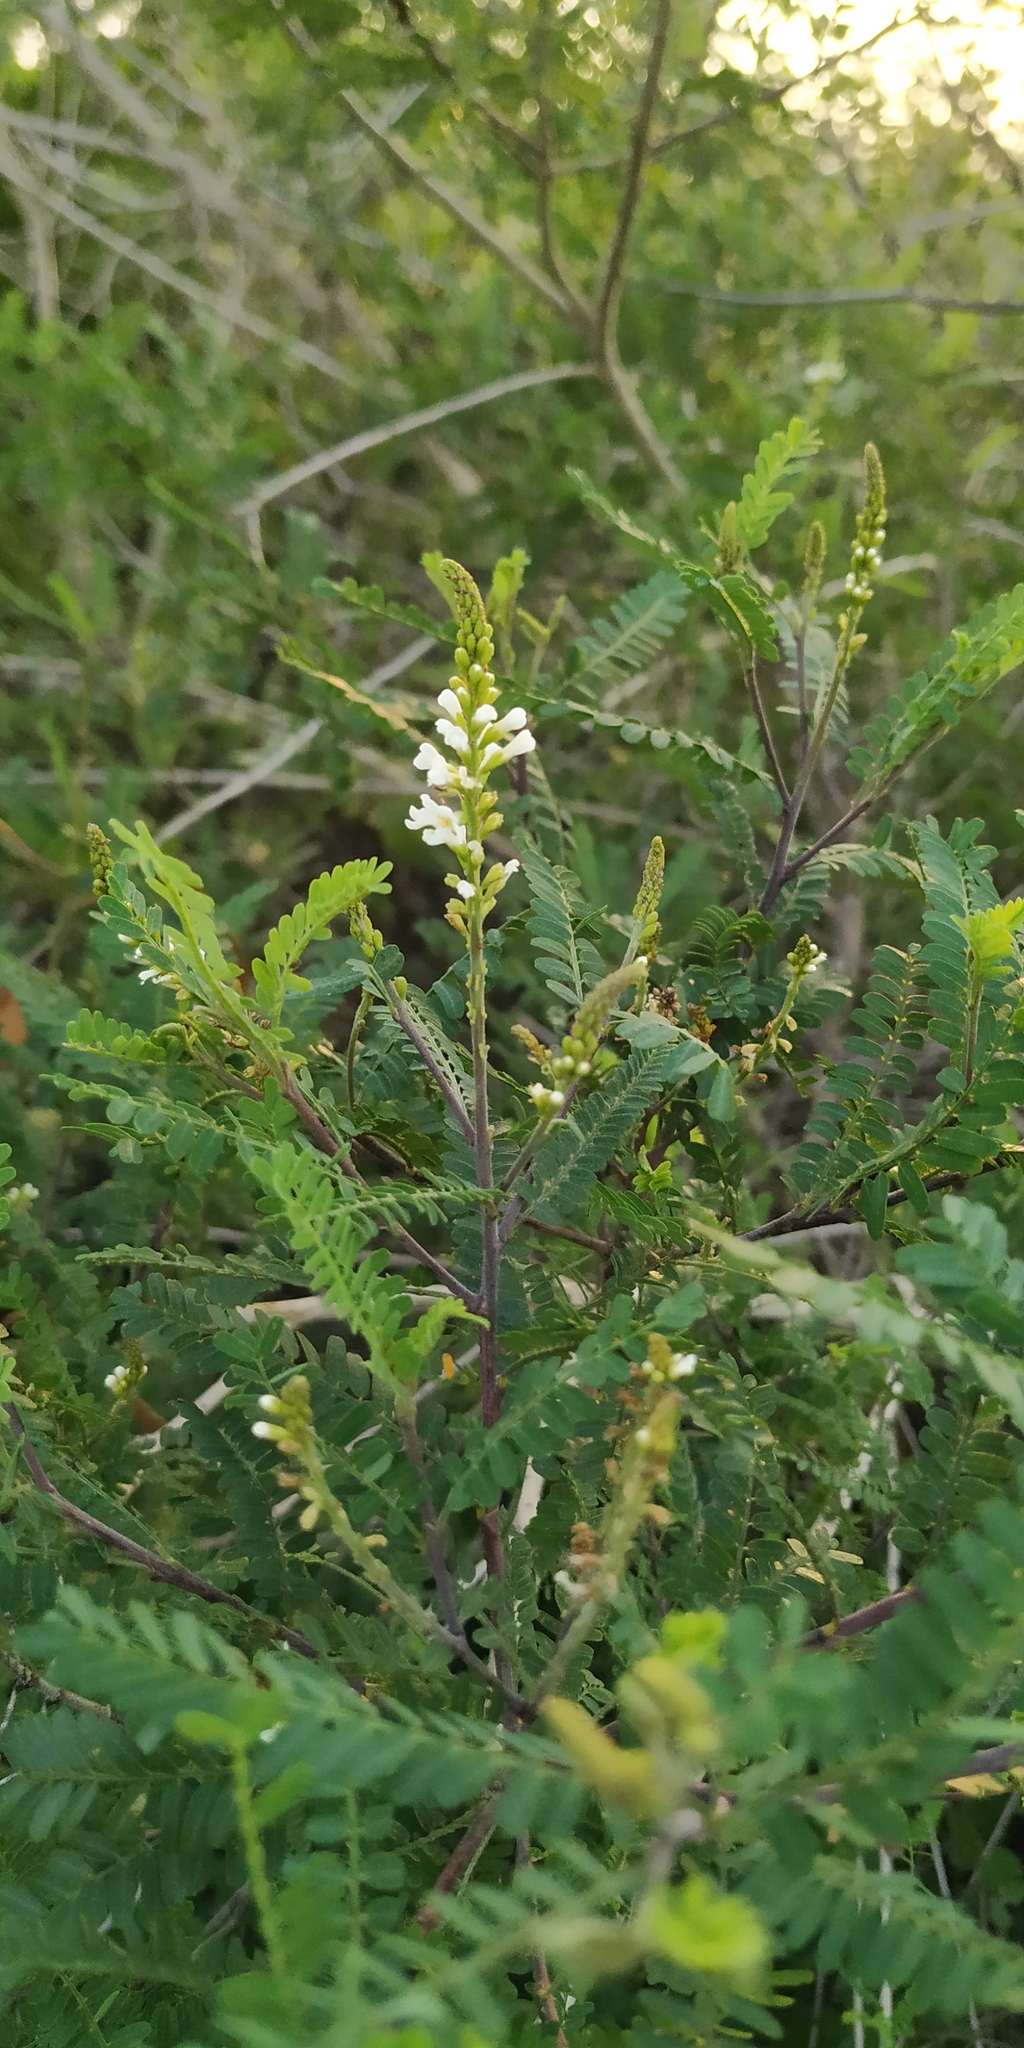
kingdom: Plantae
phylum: Tracheophyta
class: Magnoliopsida
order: Fabales
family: Fabaceae
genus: Eysenhardtia
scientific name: Eysenhardtia polystachya
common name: Kidneywood
